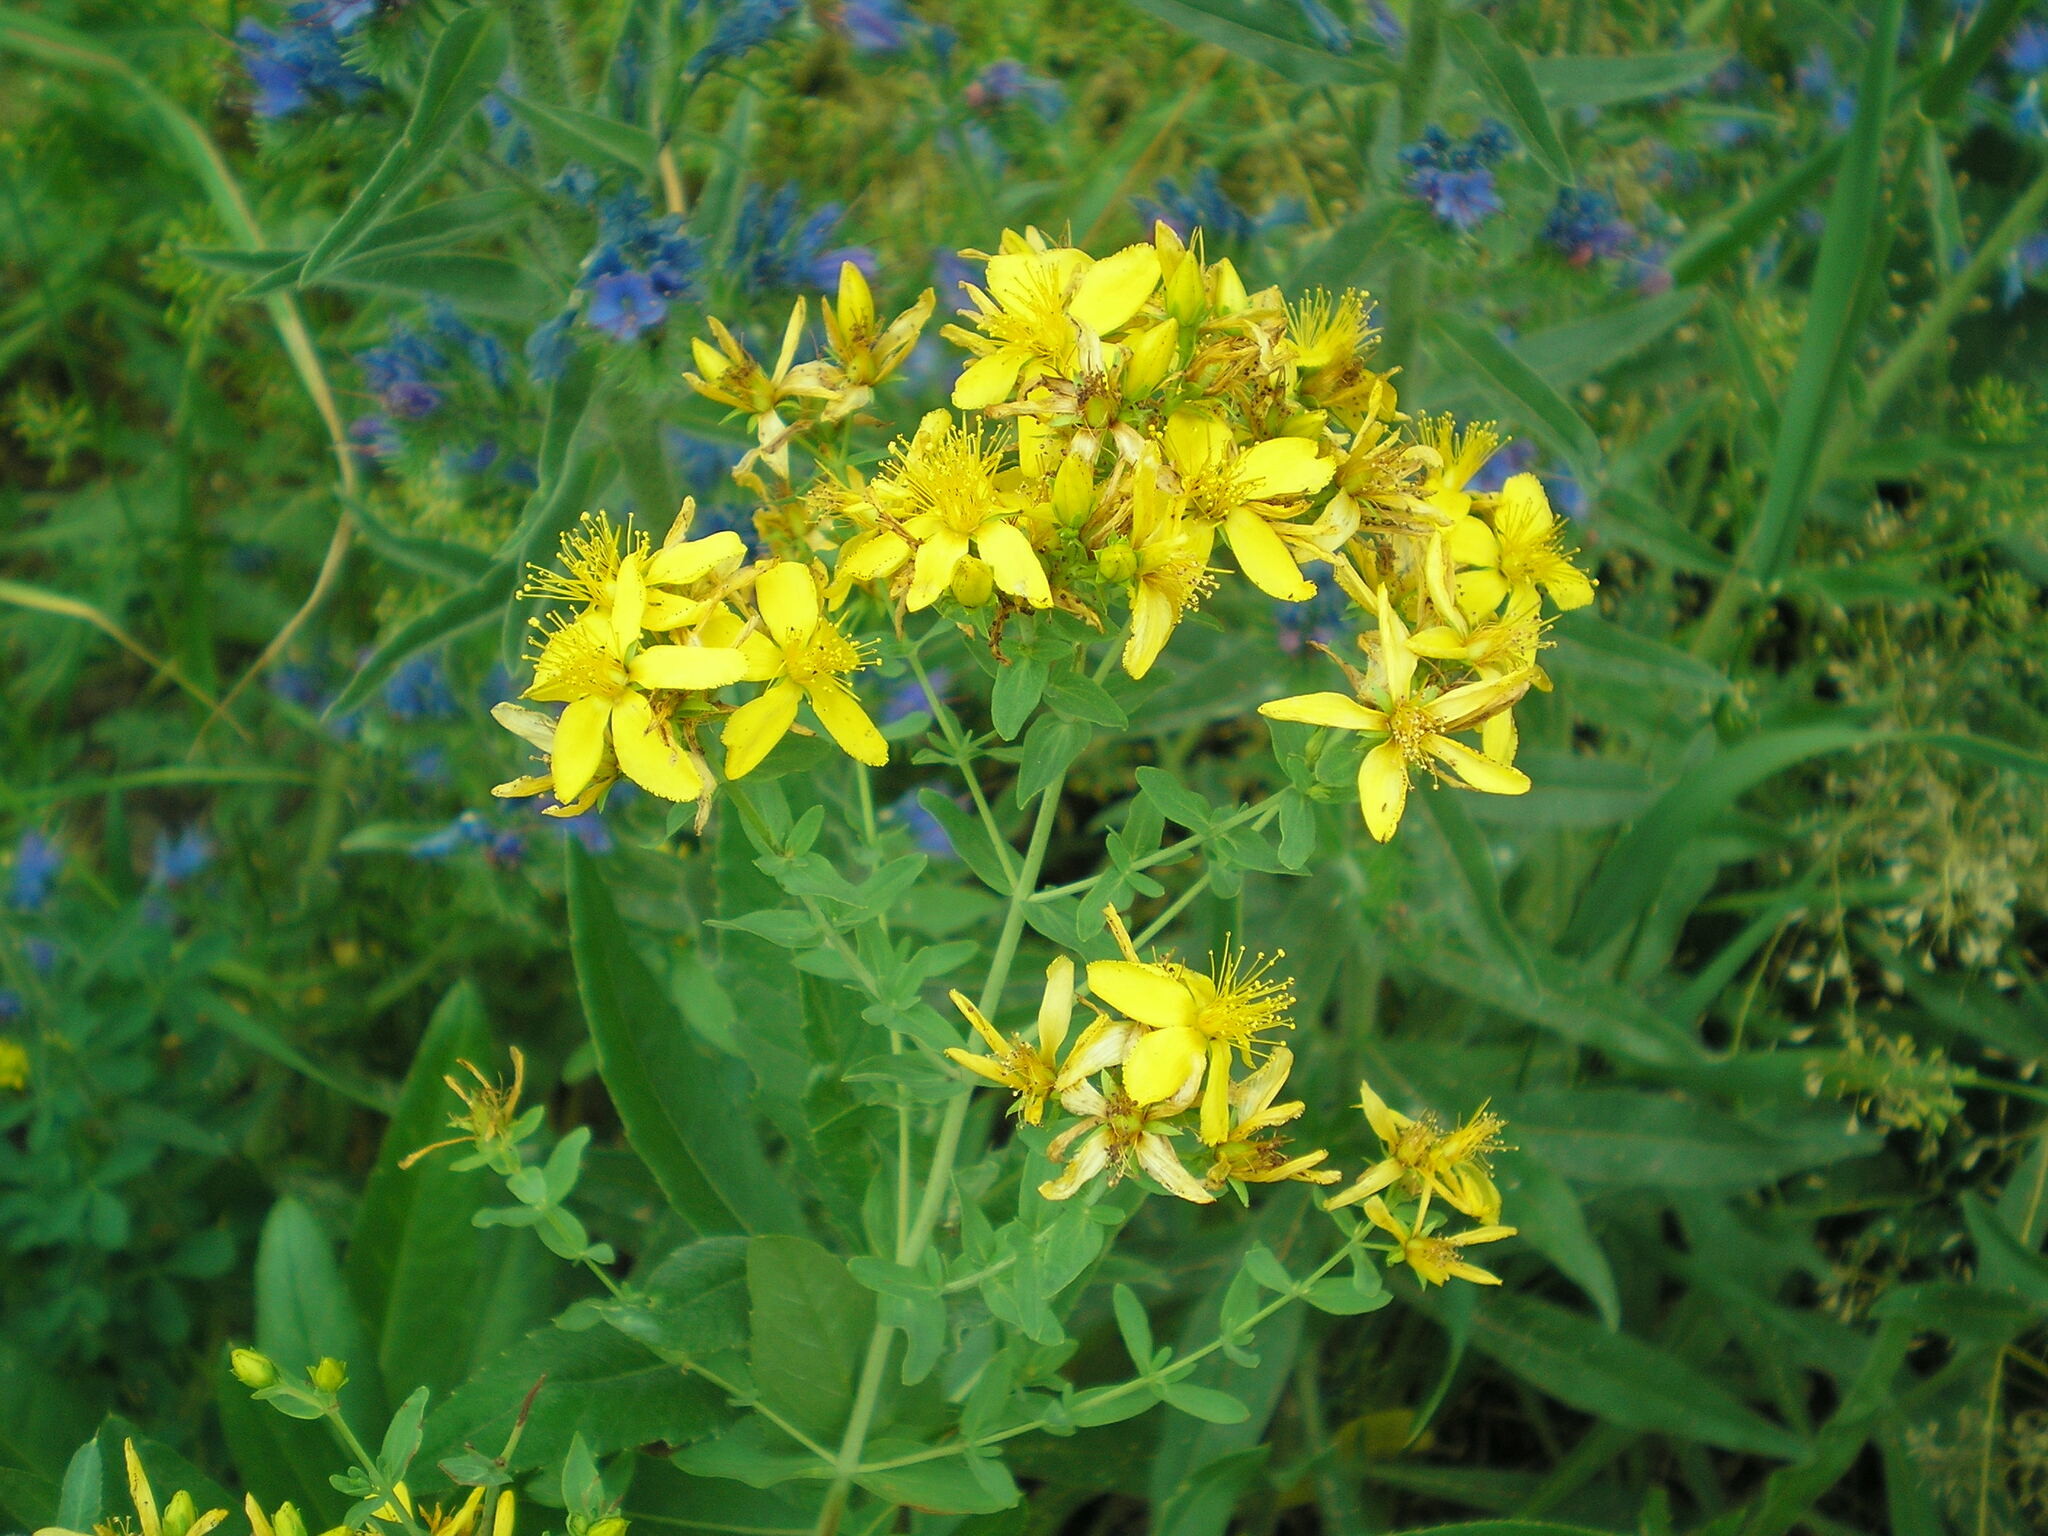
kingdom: Plantae
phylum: Tracheophyta
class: Magnoliopsida
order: Malpighiales
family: Hypericaceae
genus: Hypericum
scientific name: Hypericum perforatum
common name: Common st. johnswort
